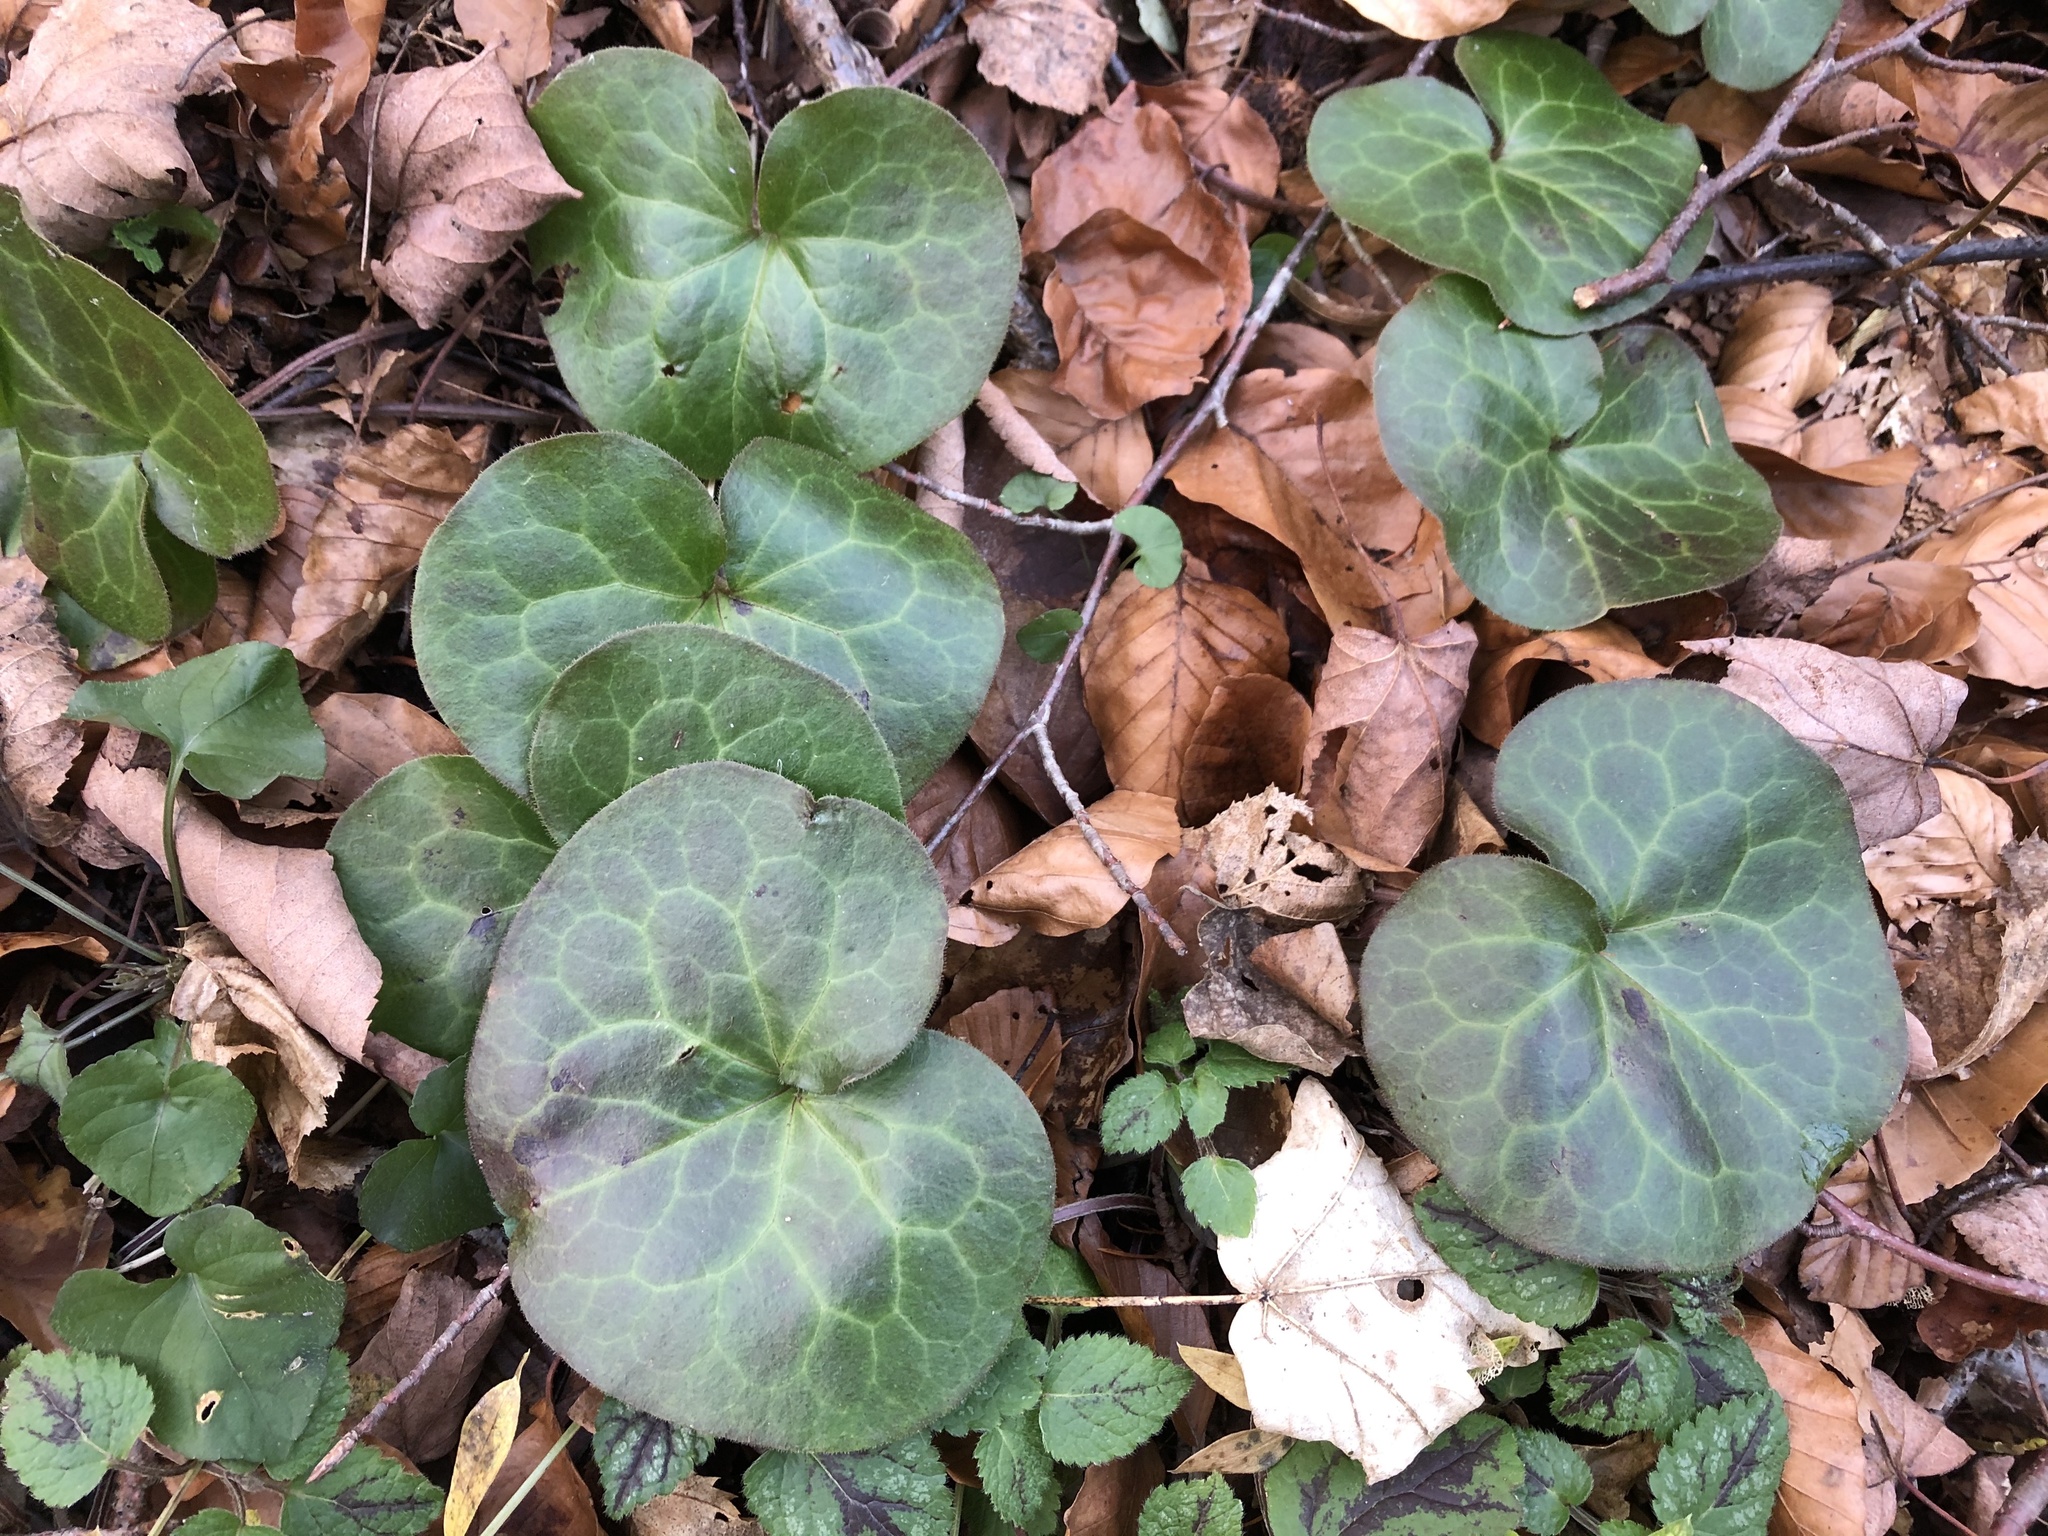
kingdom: Plantae
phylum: Tracheophyta
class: Magnoliopsida
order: Piperales
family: Aristolochiaceae
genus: Asarum
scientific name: Asarum europaeum
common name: Asarabacca
